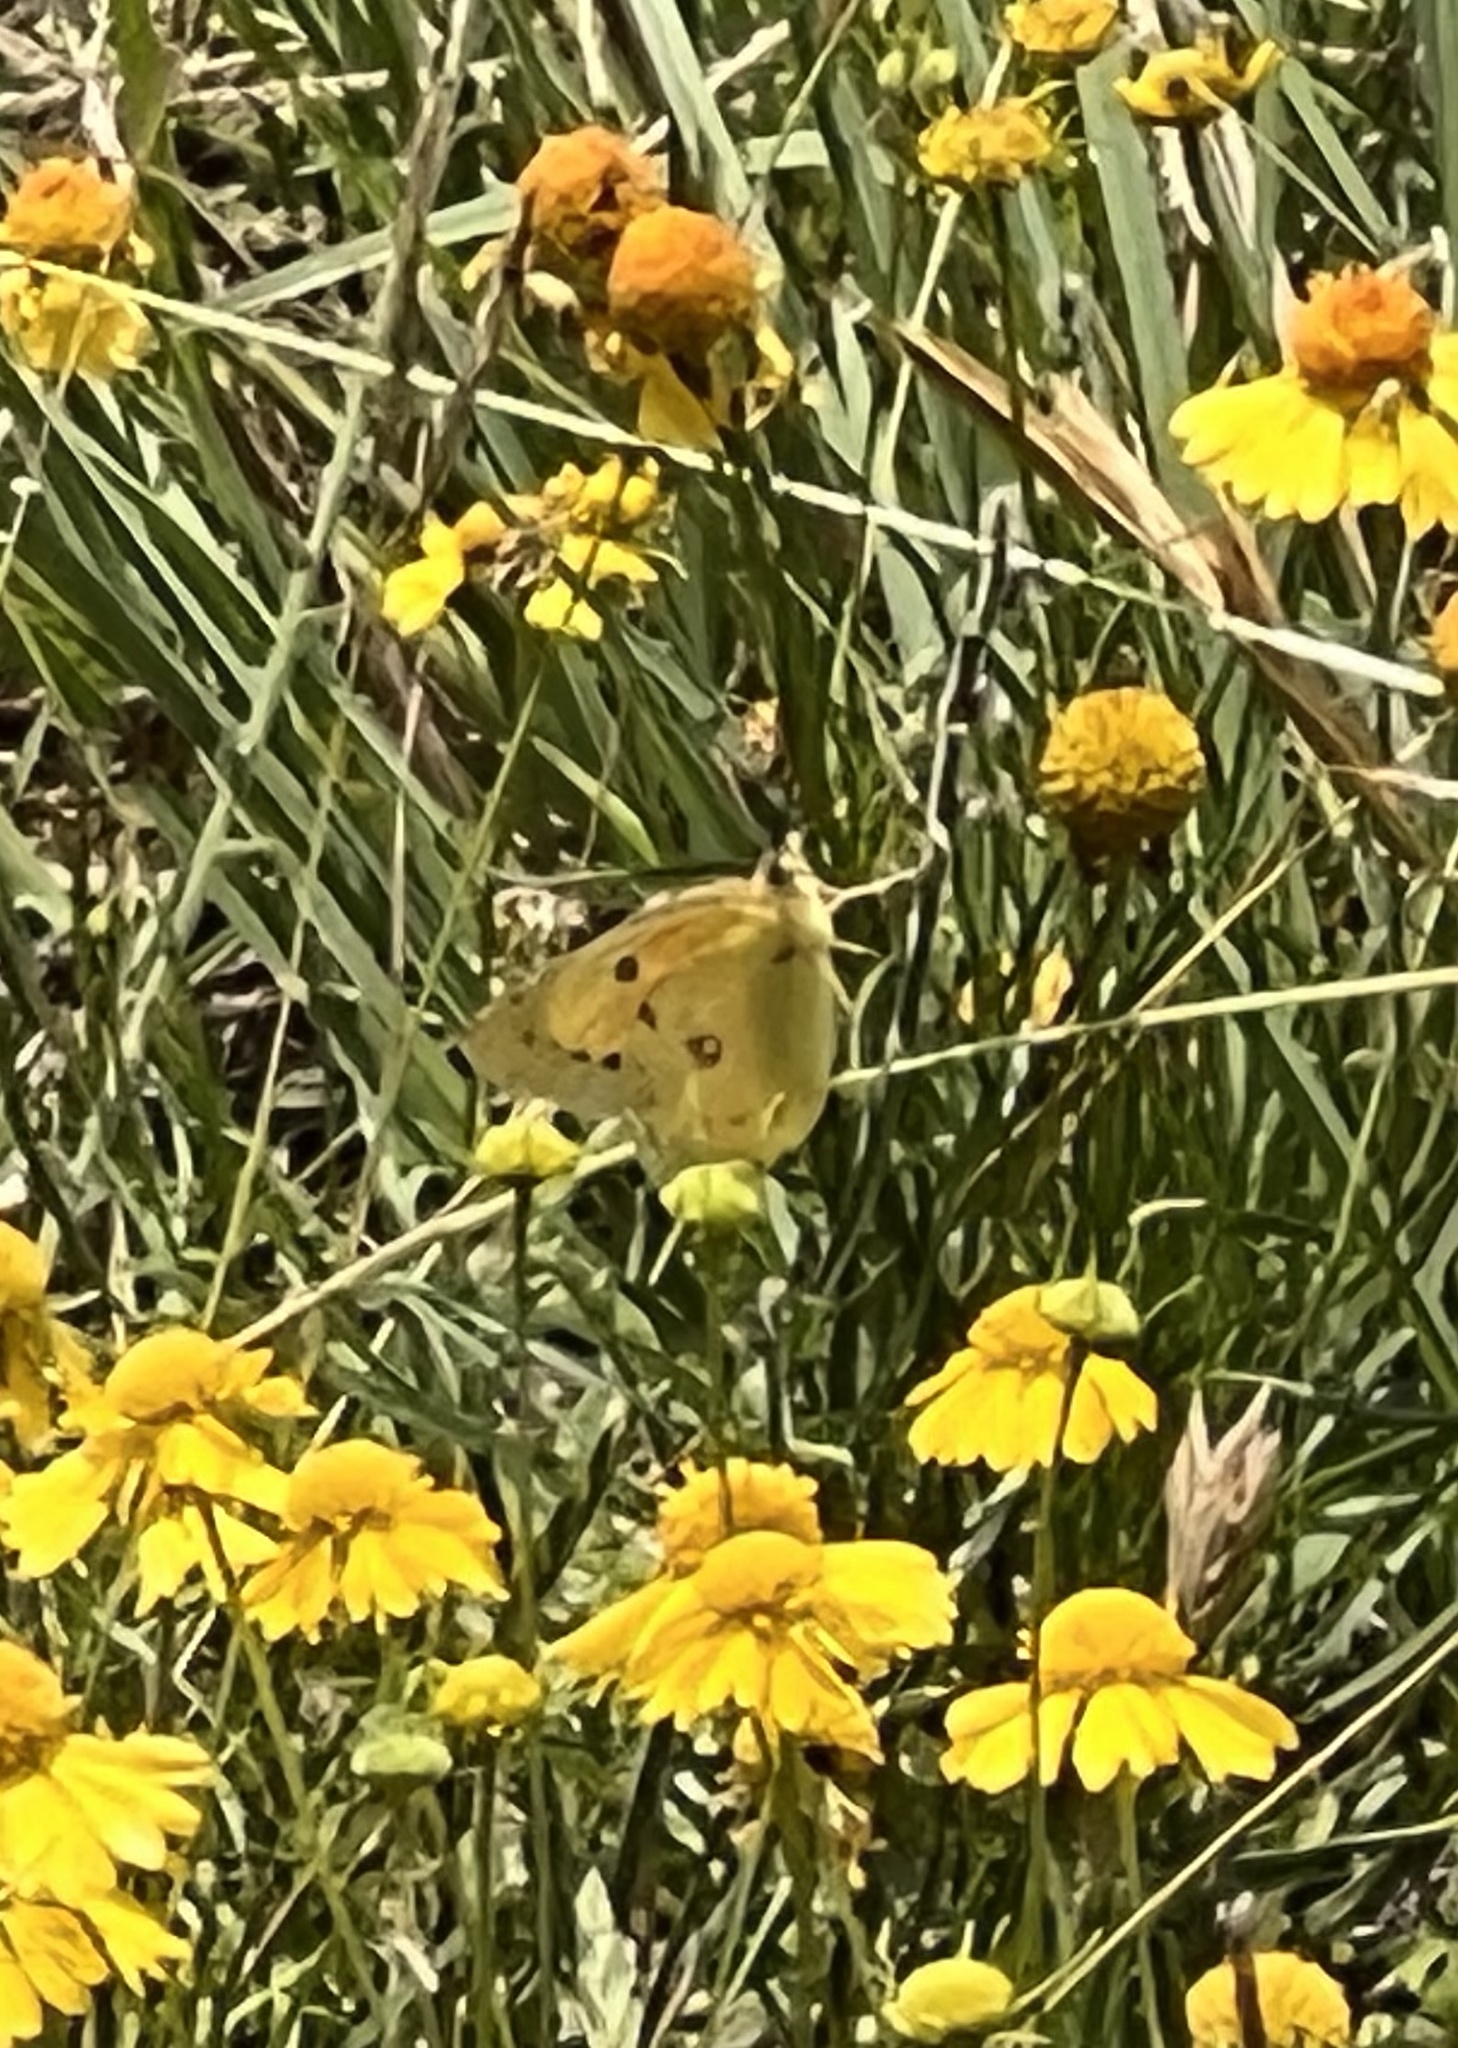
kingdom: Animalia
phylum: Arthropoda
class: Insecta
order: Lepidoptera
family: Pieridae
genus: Colias
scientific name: Colias eurytheme
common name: Alfalfa butterfly
